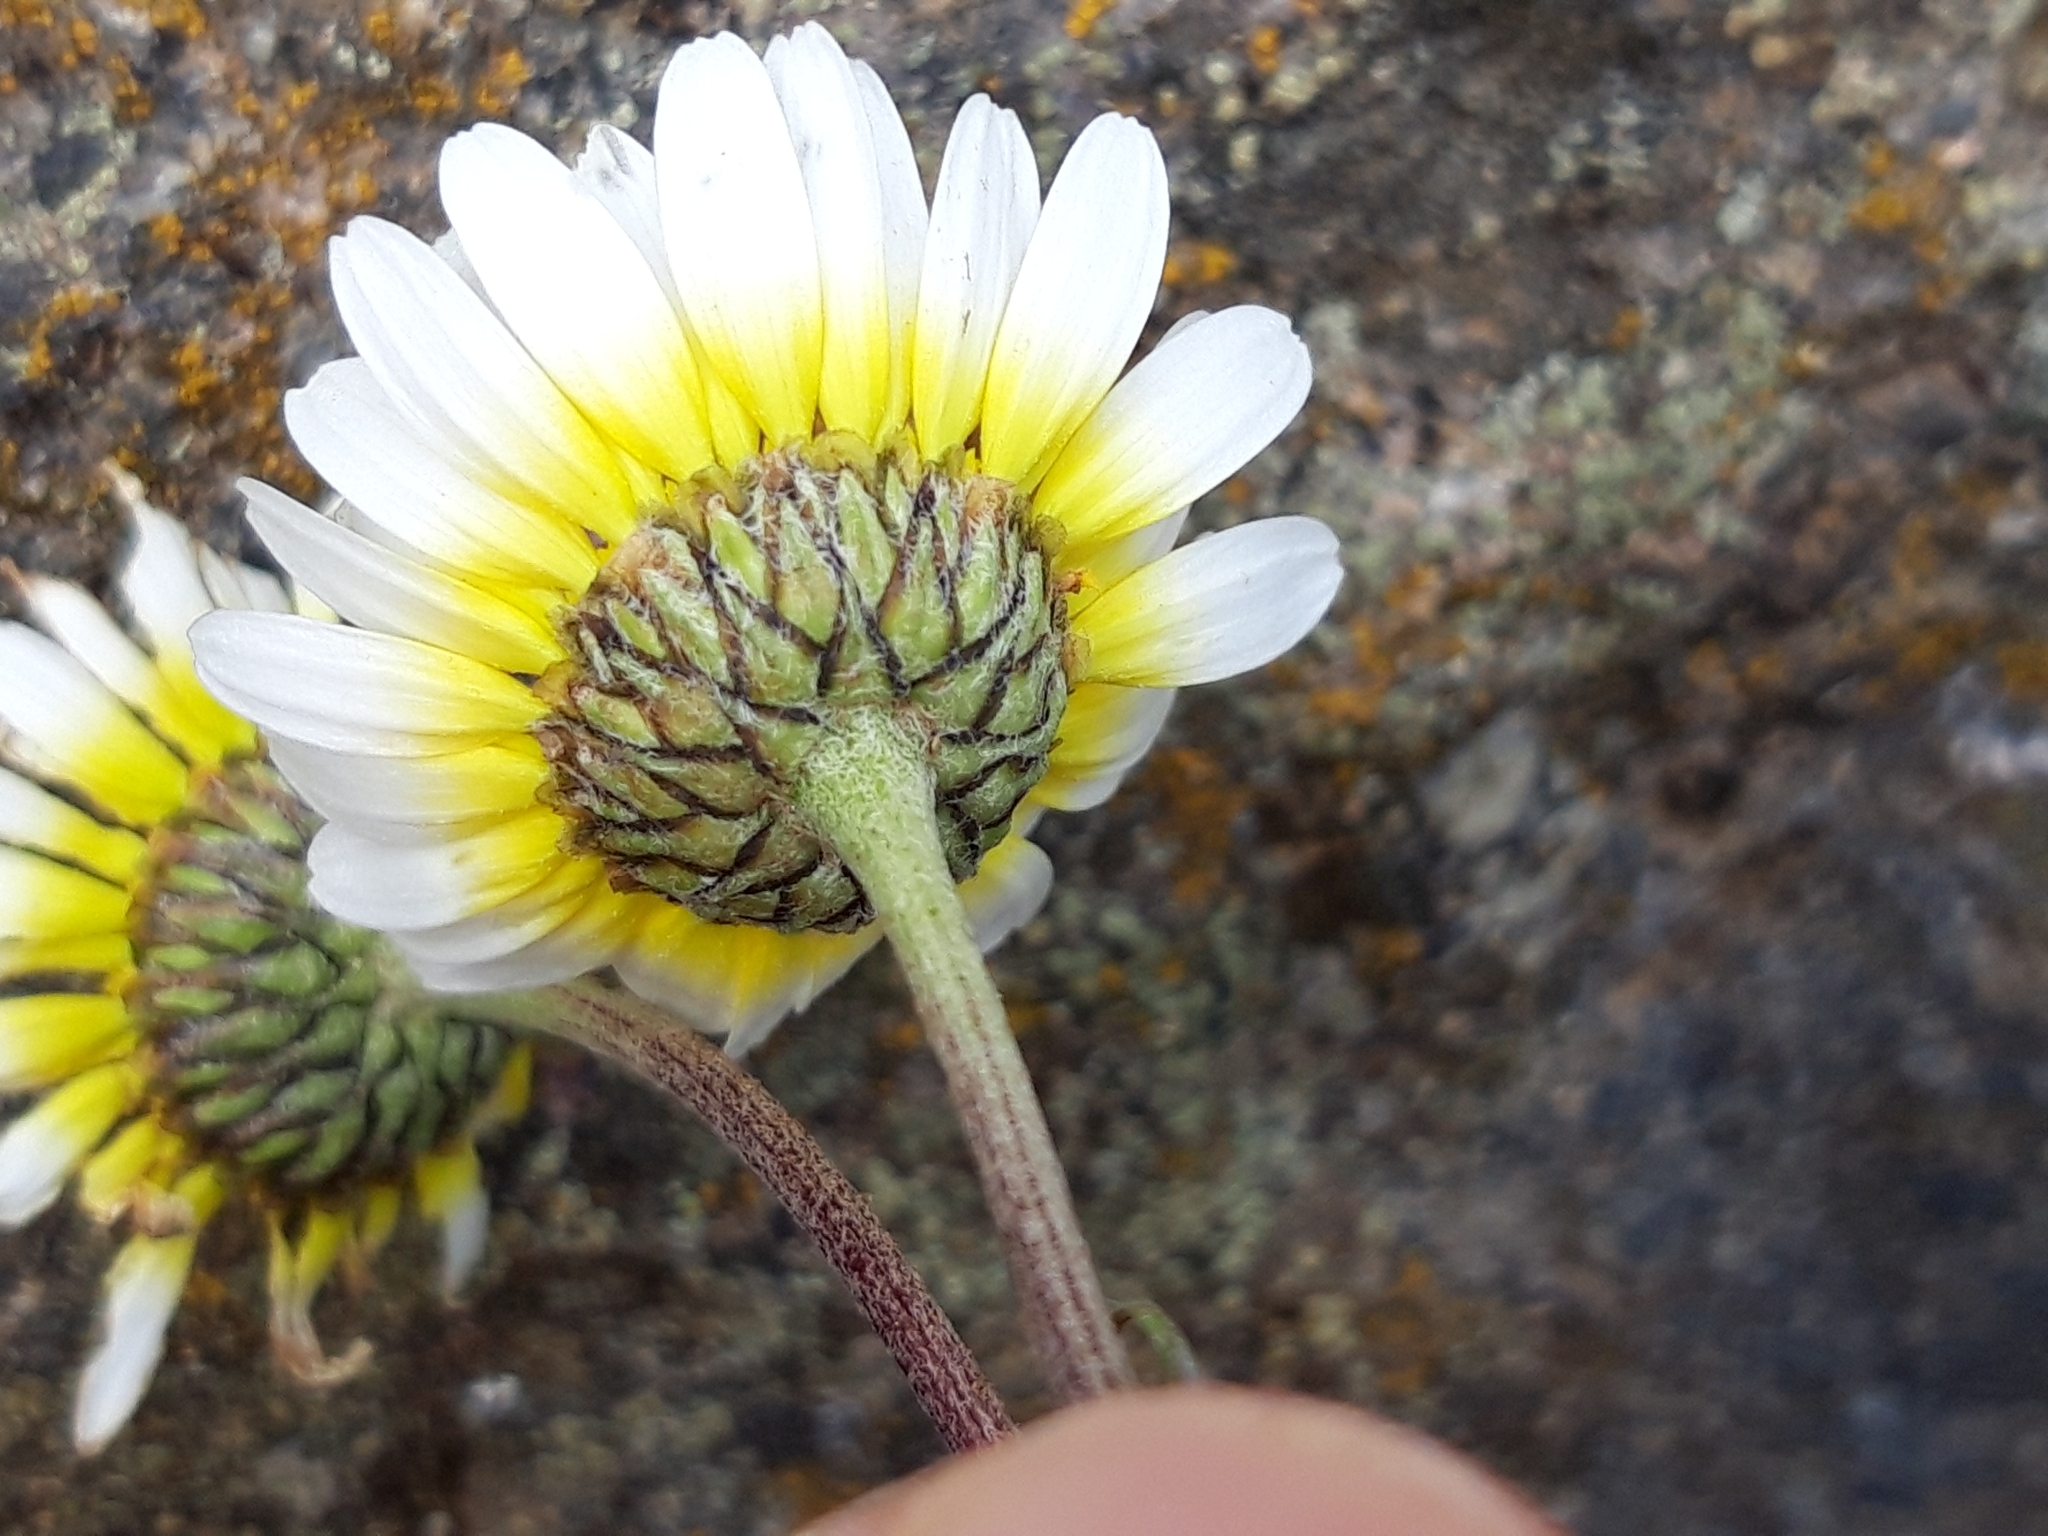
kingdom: Plantae
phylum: Tracheophyta
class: Magnoliopsida
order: Asterales
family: Asteraceae
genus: Leucanthemopsis
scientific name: Leucanthemopsis pallida
